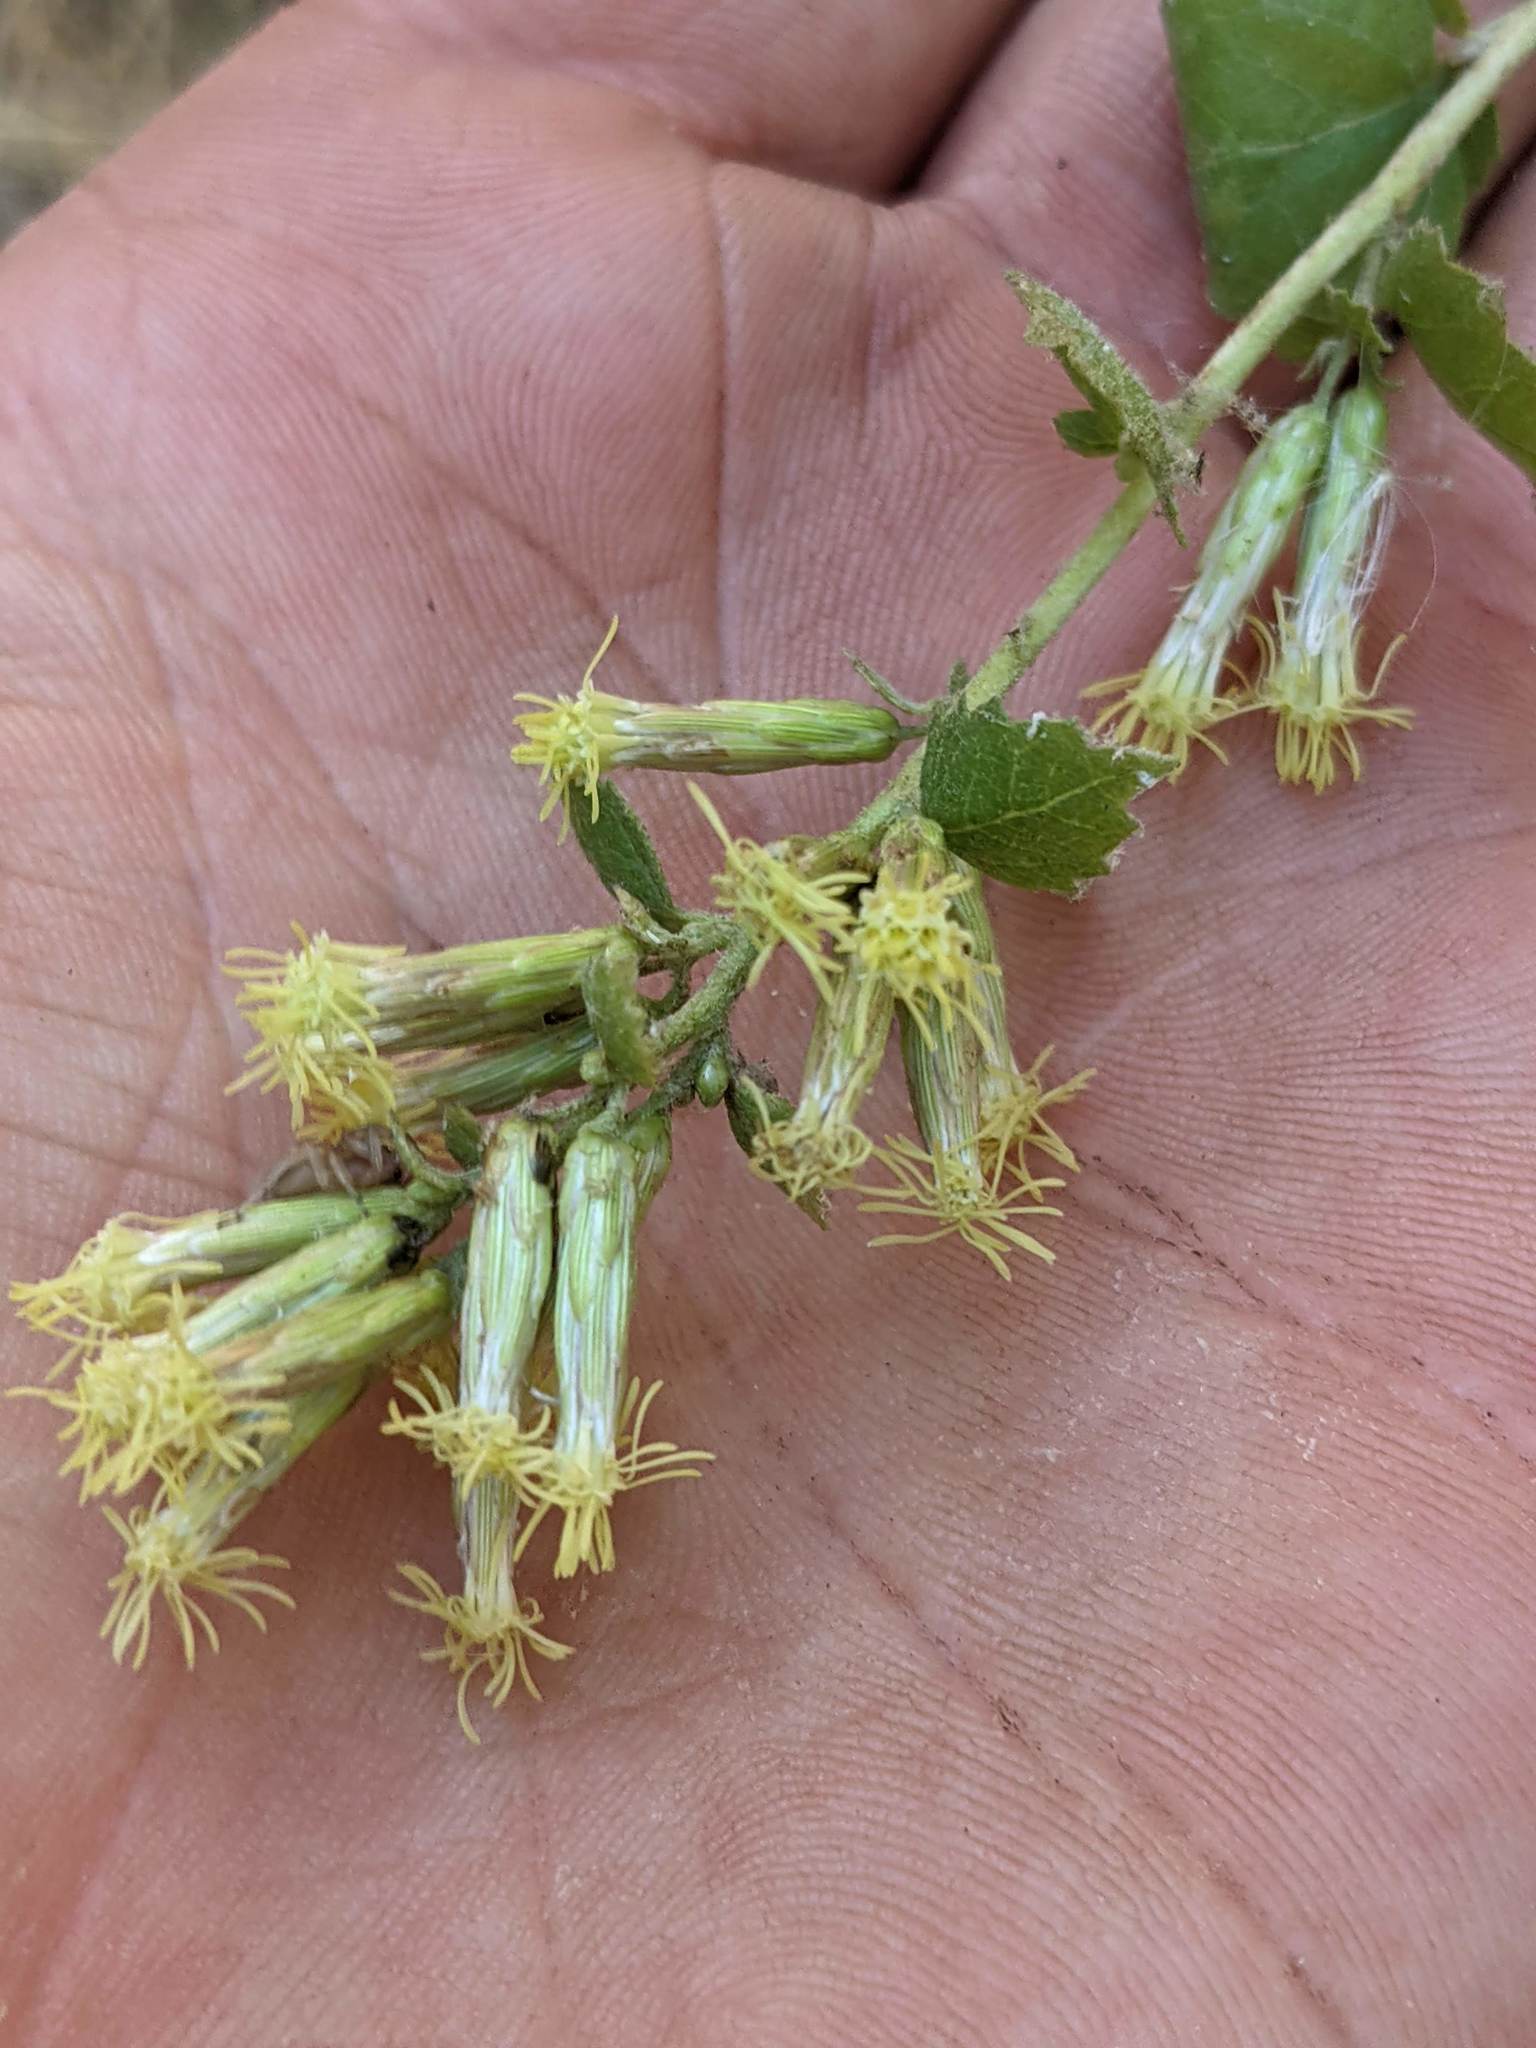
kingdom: Plantae
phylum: Tracheophyta
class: Magnoliopsida
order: Asterales
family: Asteraceae
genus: Brickellia
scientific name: Brickellia californica
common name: California brickellbush
